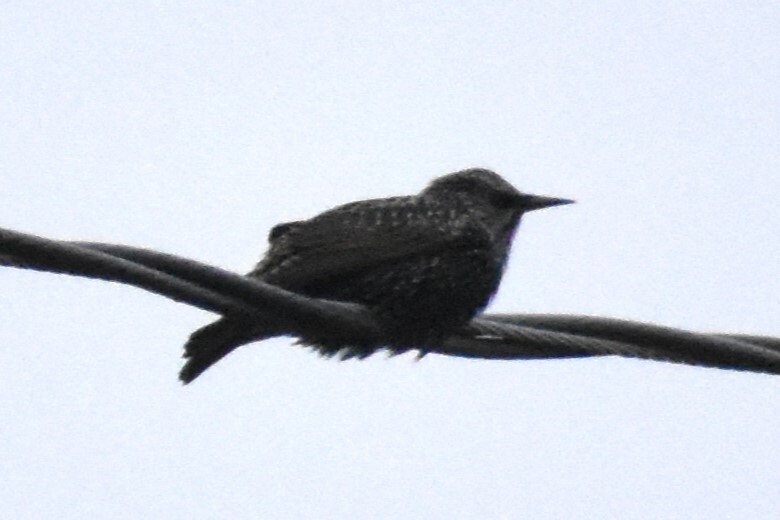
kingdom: Animalia
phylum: Chordata
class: Aves
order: Passeriformes
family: Sturnidae
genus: Sturnus
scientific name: Sturnus vulgaris
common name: Common starling
